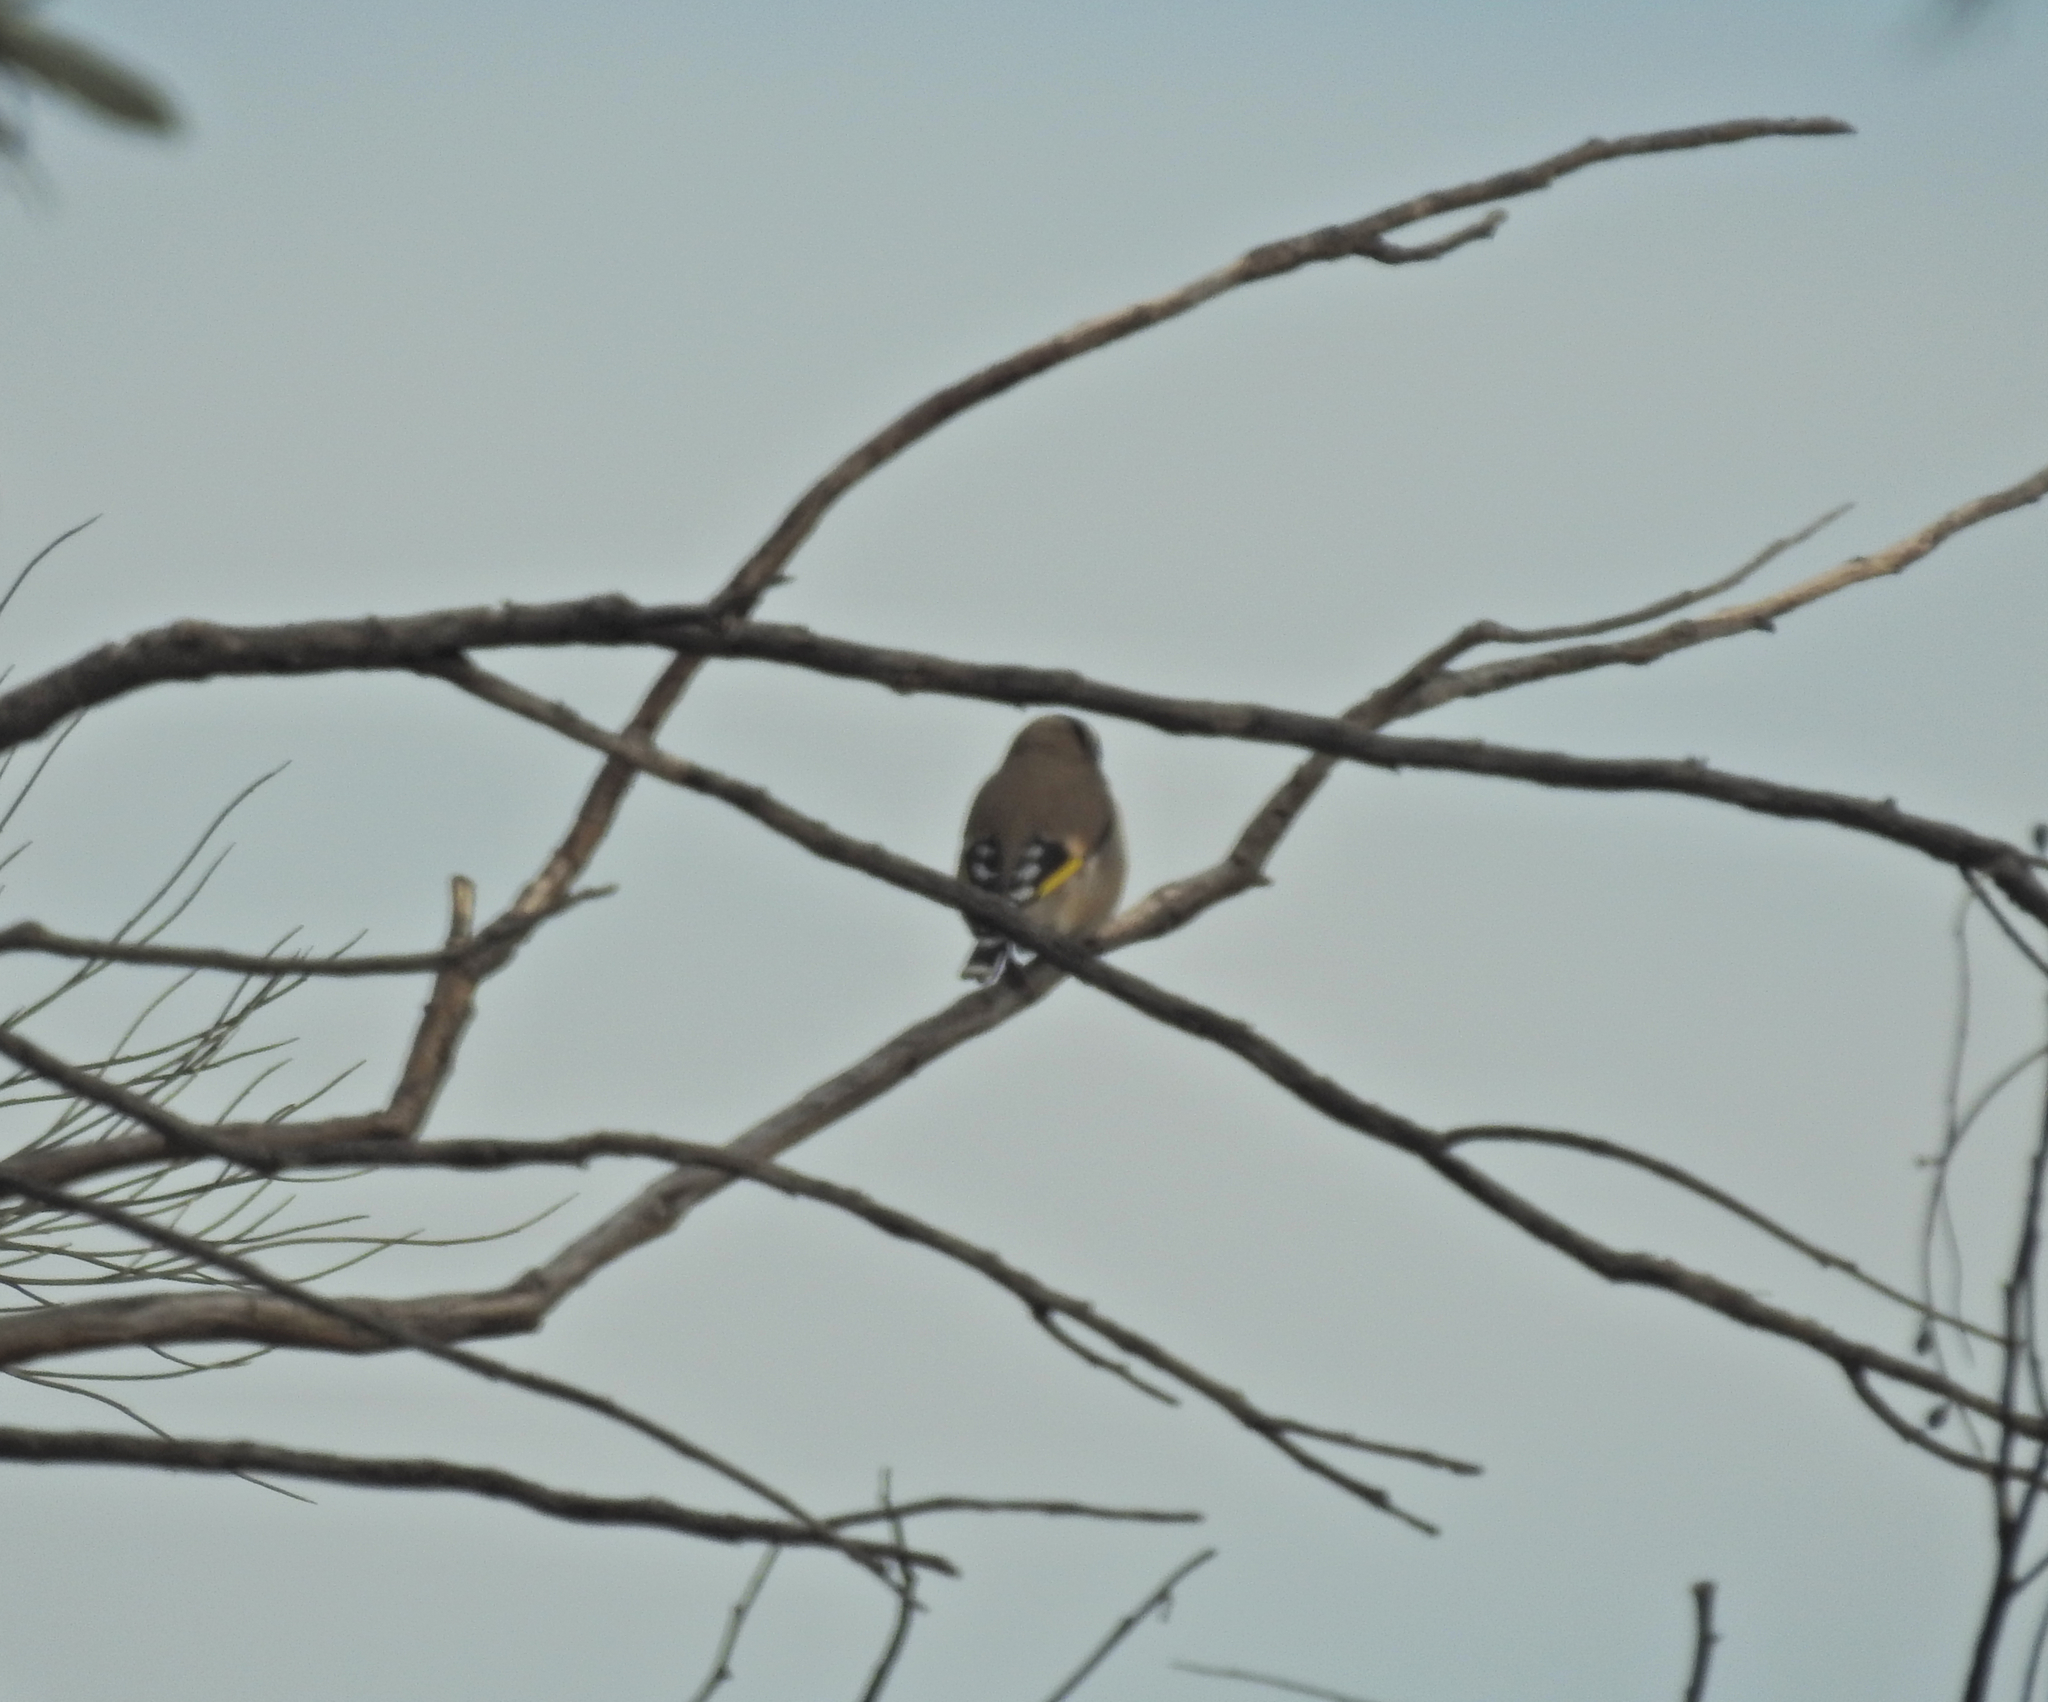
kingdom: Animalia
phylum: Chordata
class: Aves
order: Passeriformes
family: Fringillidae
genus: Carduelis
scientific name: Carduelis carduelis
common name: European goldfinch
